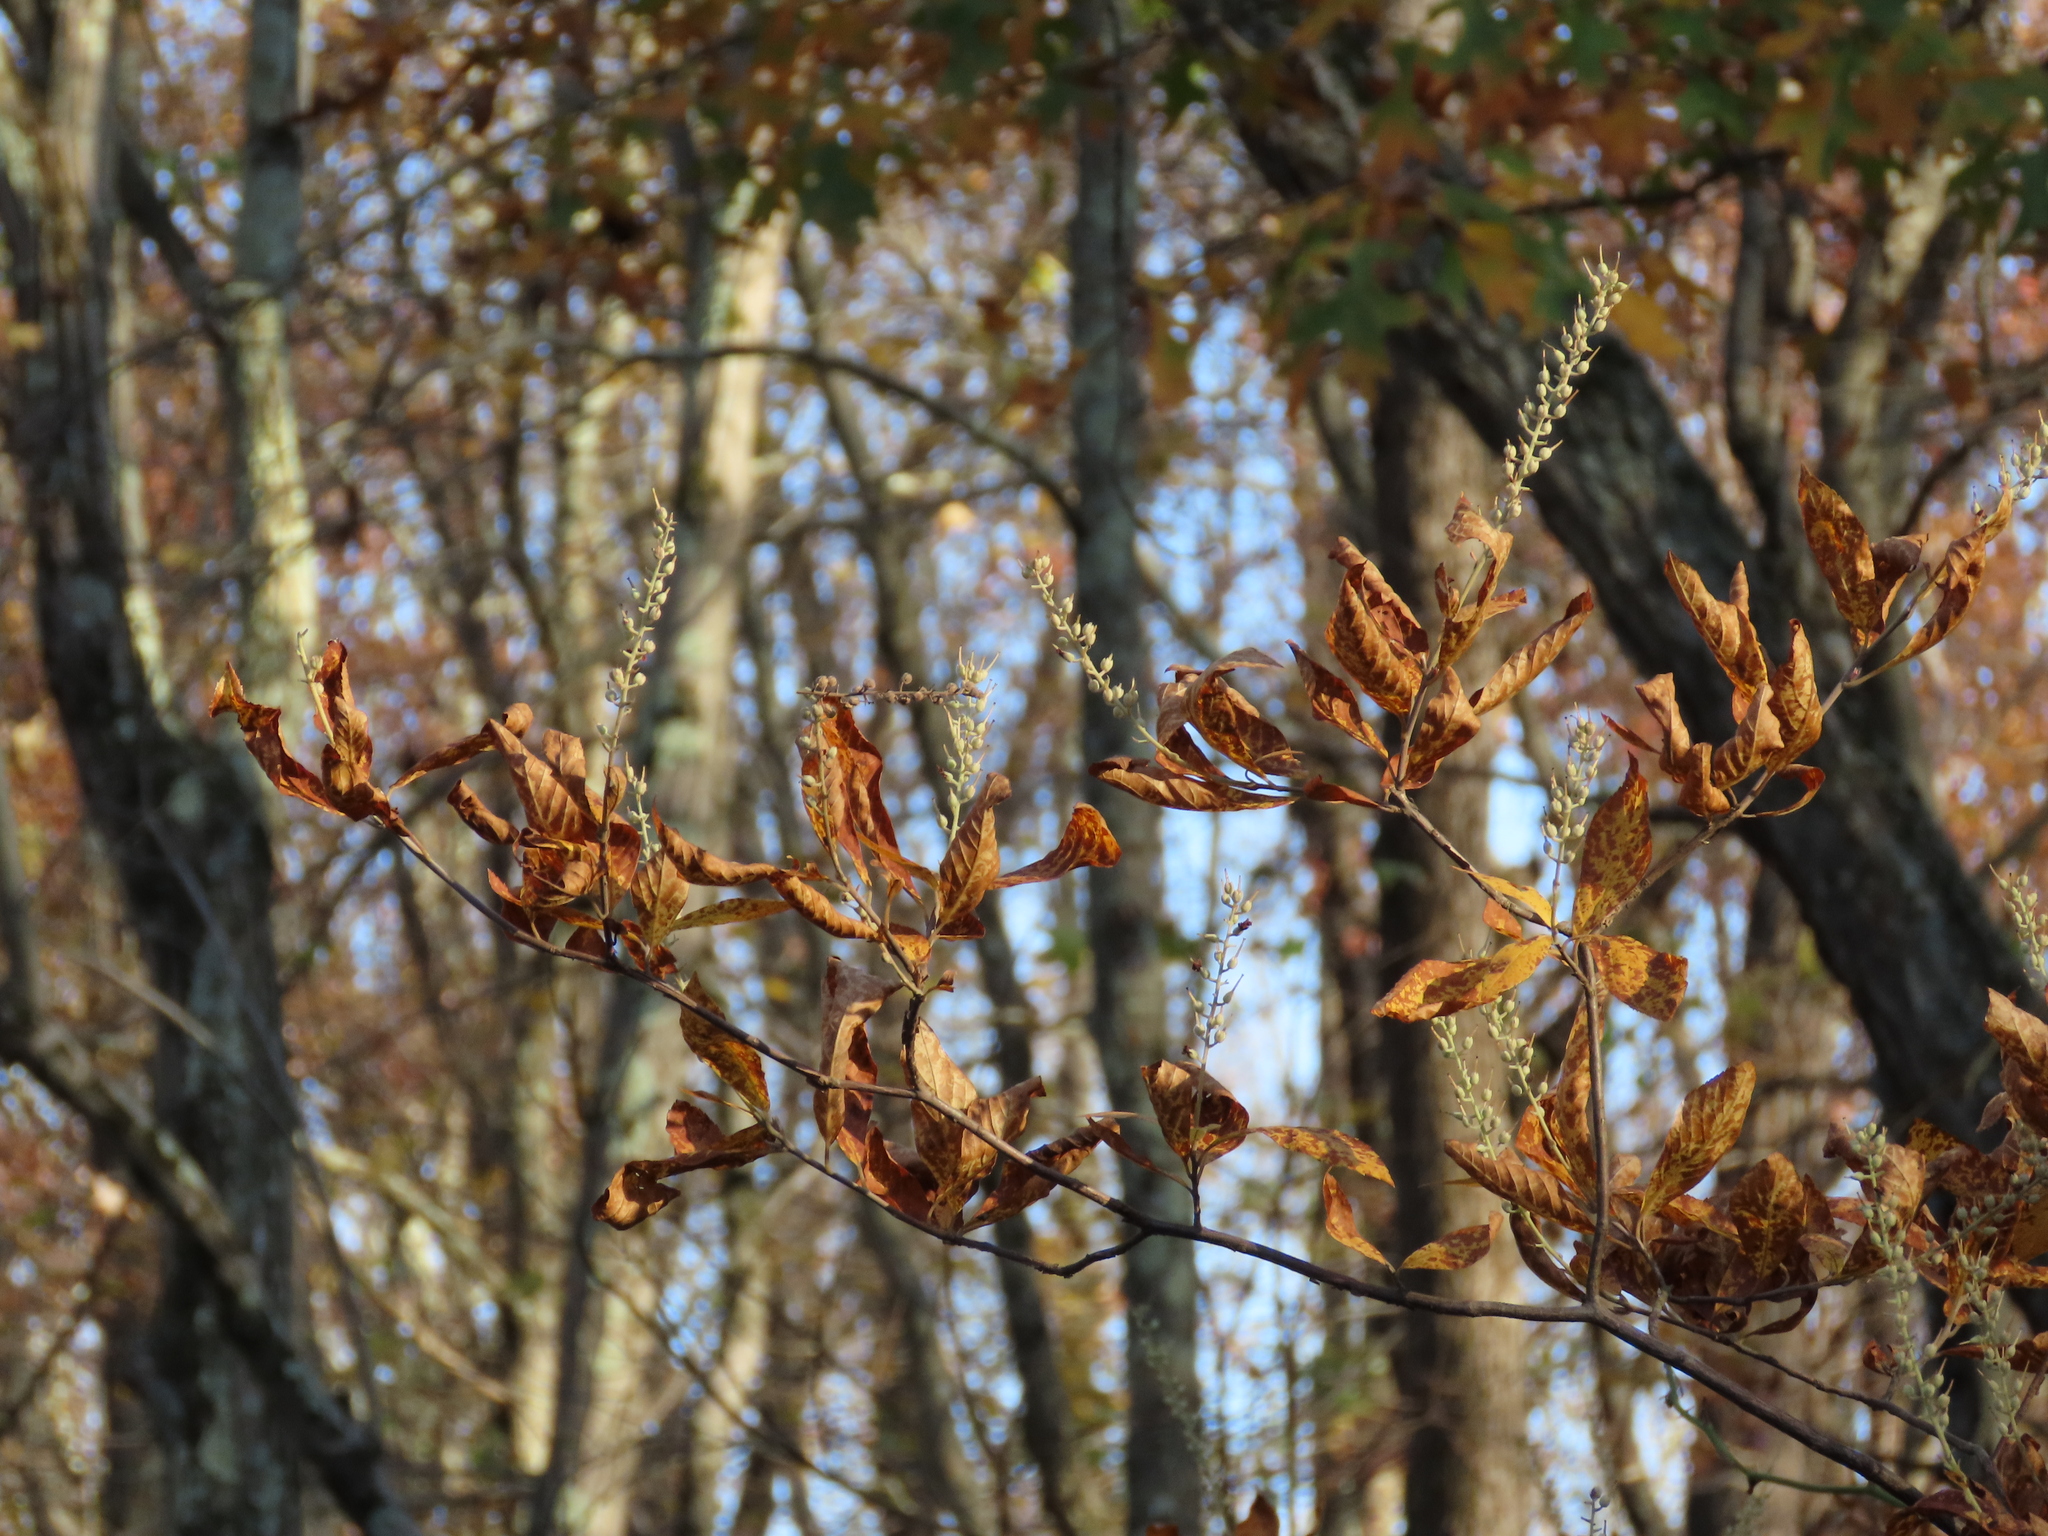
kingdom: Plantae
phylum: Tracheophyta
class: Magnoliopsida
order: Ericales
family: Clethraceae
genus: Clethra
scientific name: Clethra alnifolia
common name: Sweet pepperbush
